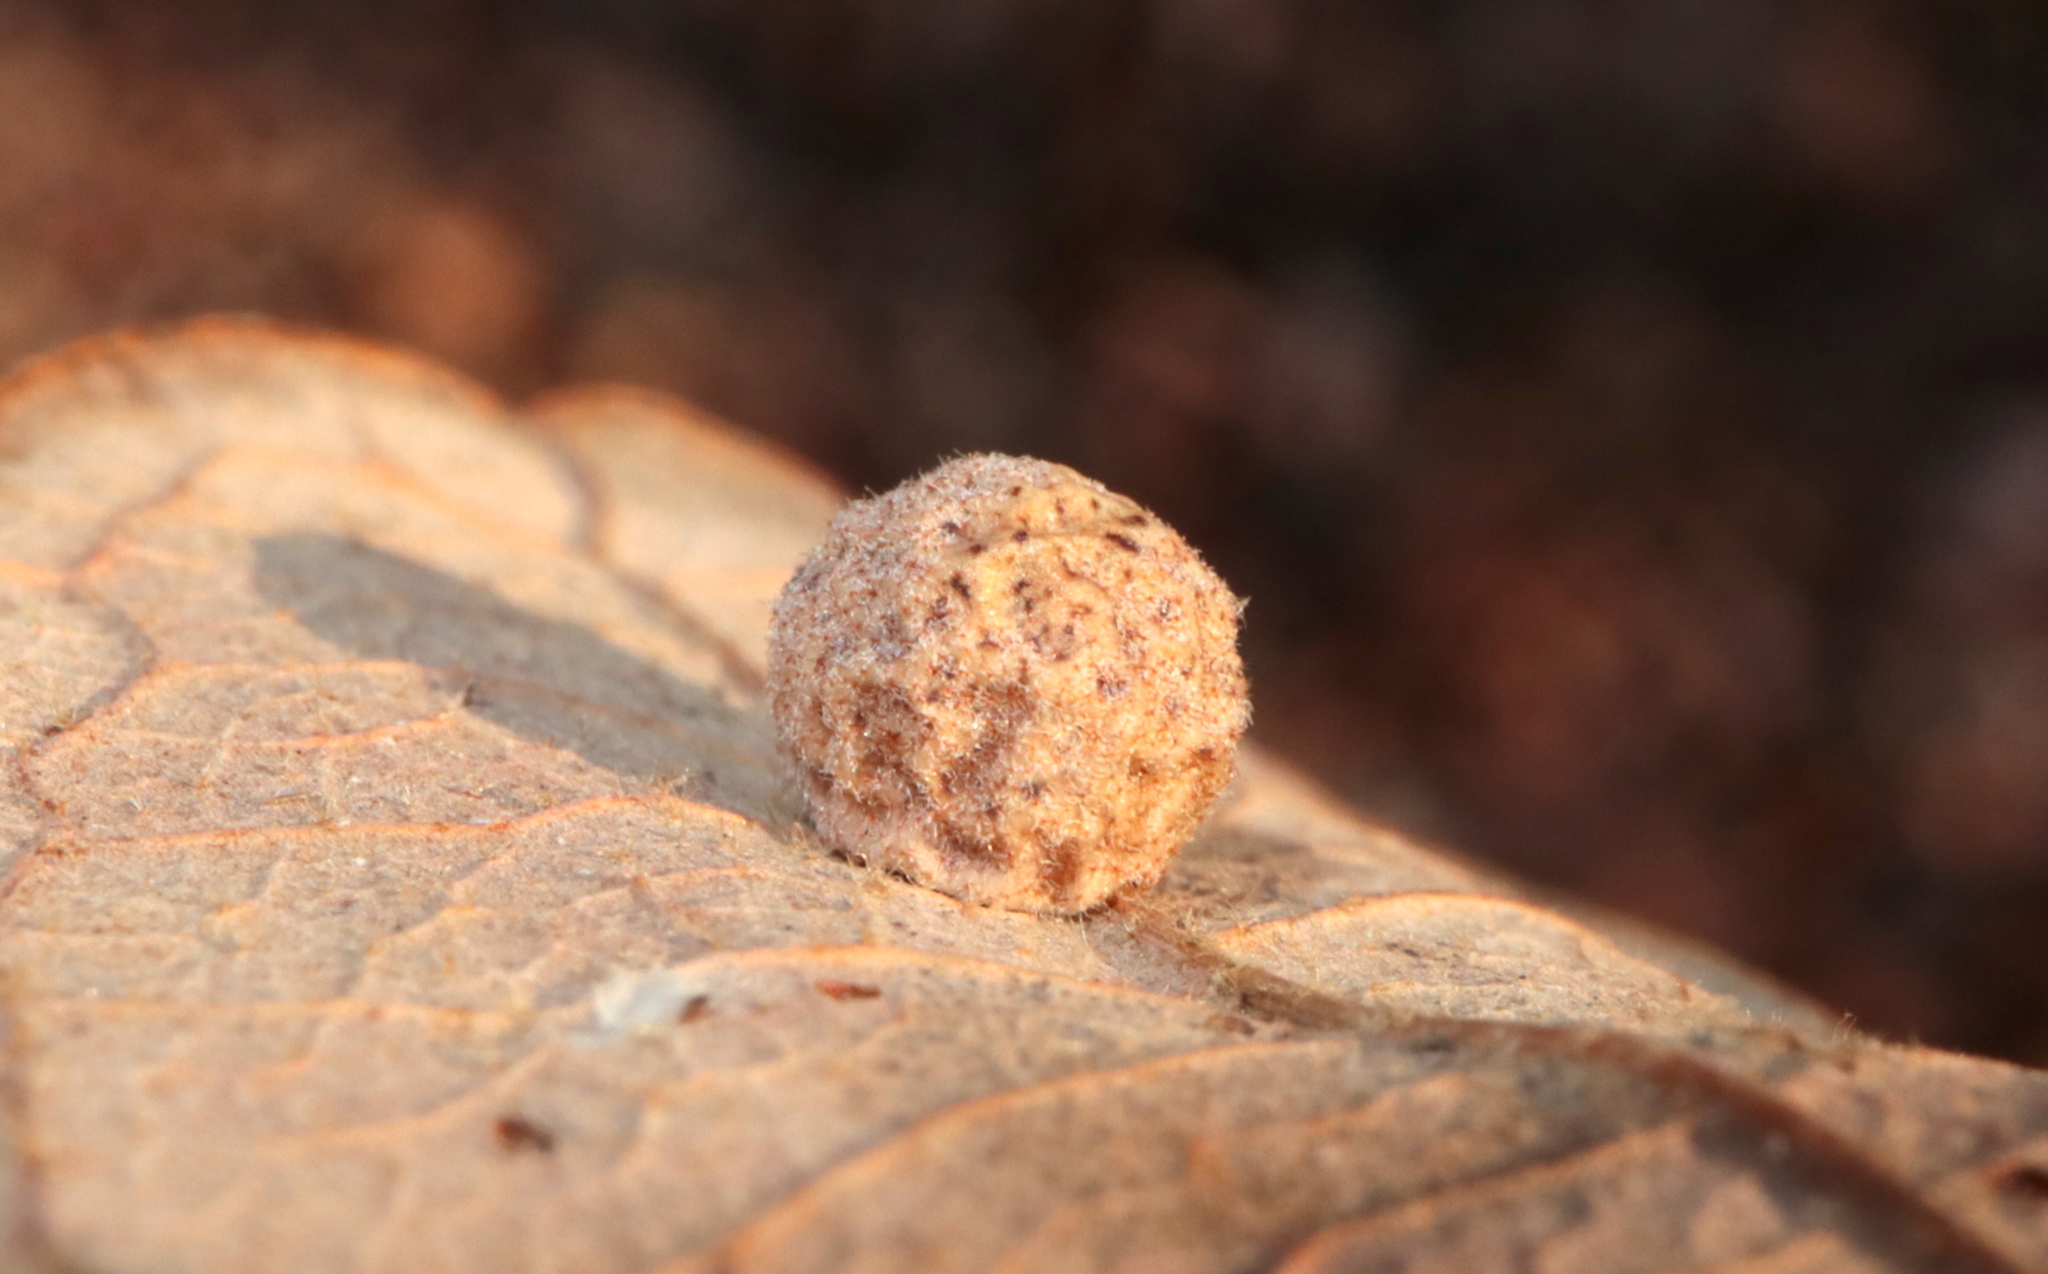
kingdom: Animalia
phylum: Arthropoda
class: Insecta
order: Hymenoptera
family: Cynipidae
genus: Atrusca
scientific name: Atrusca
